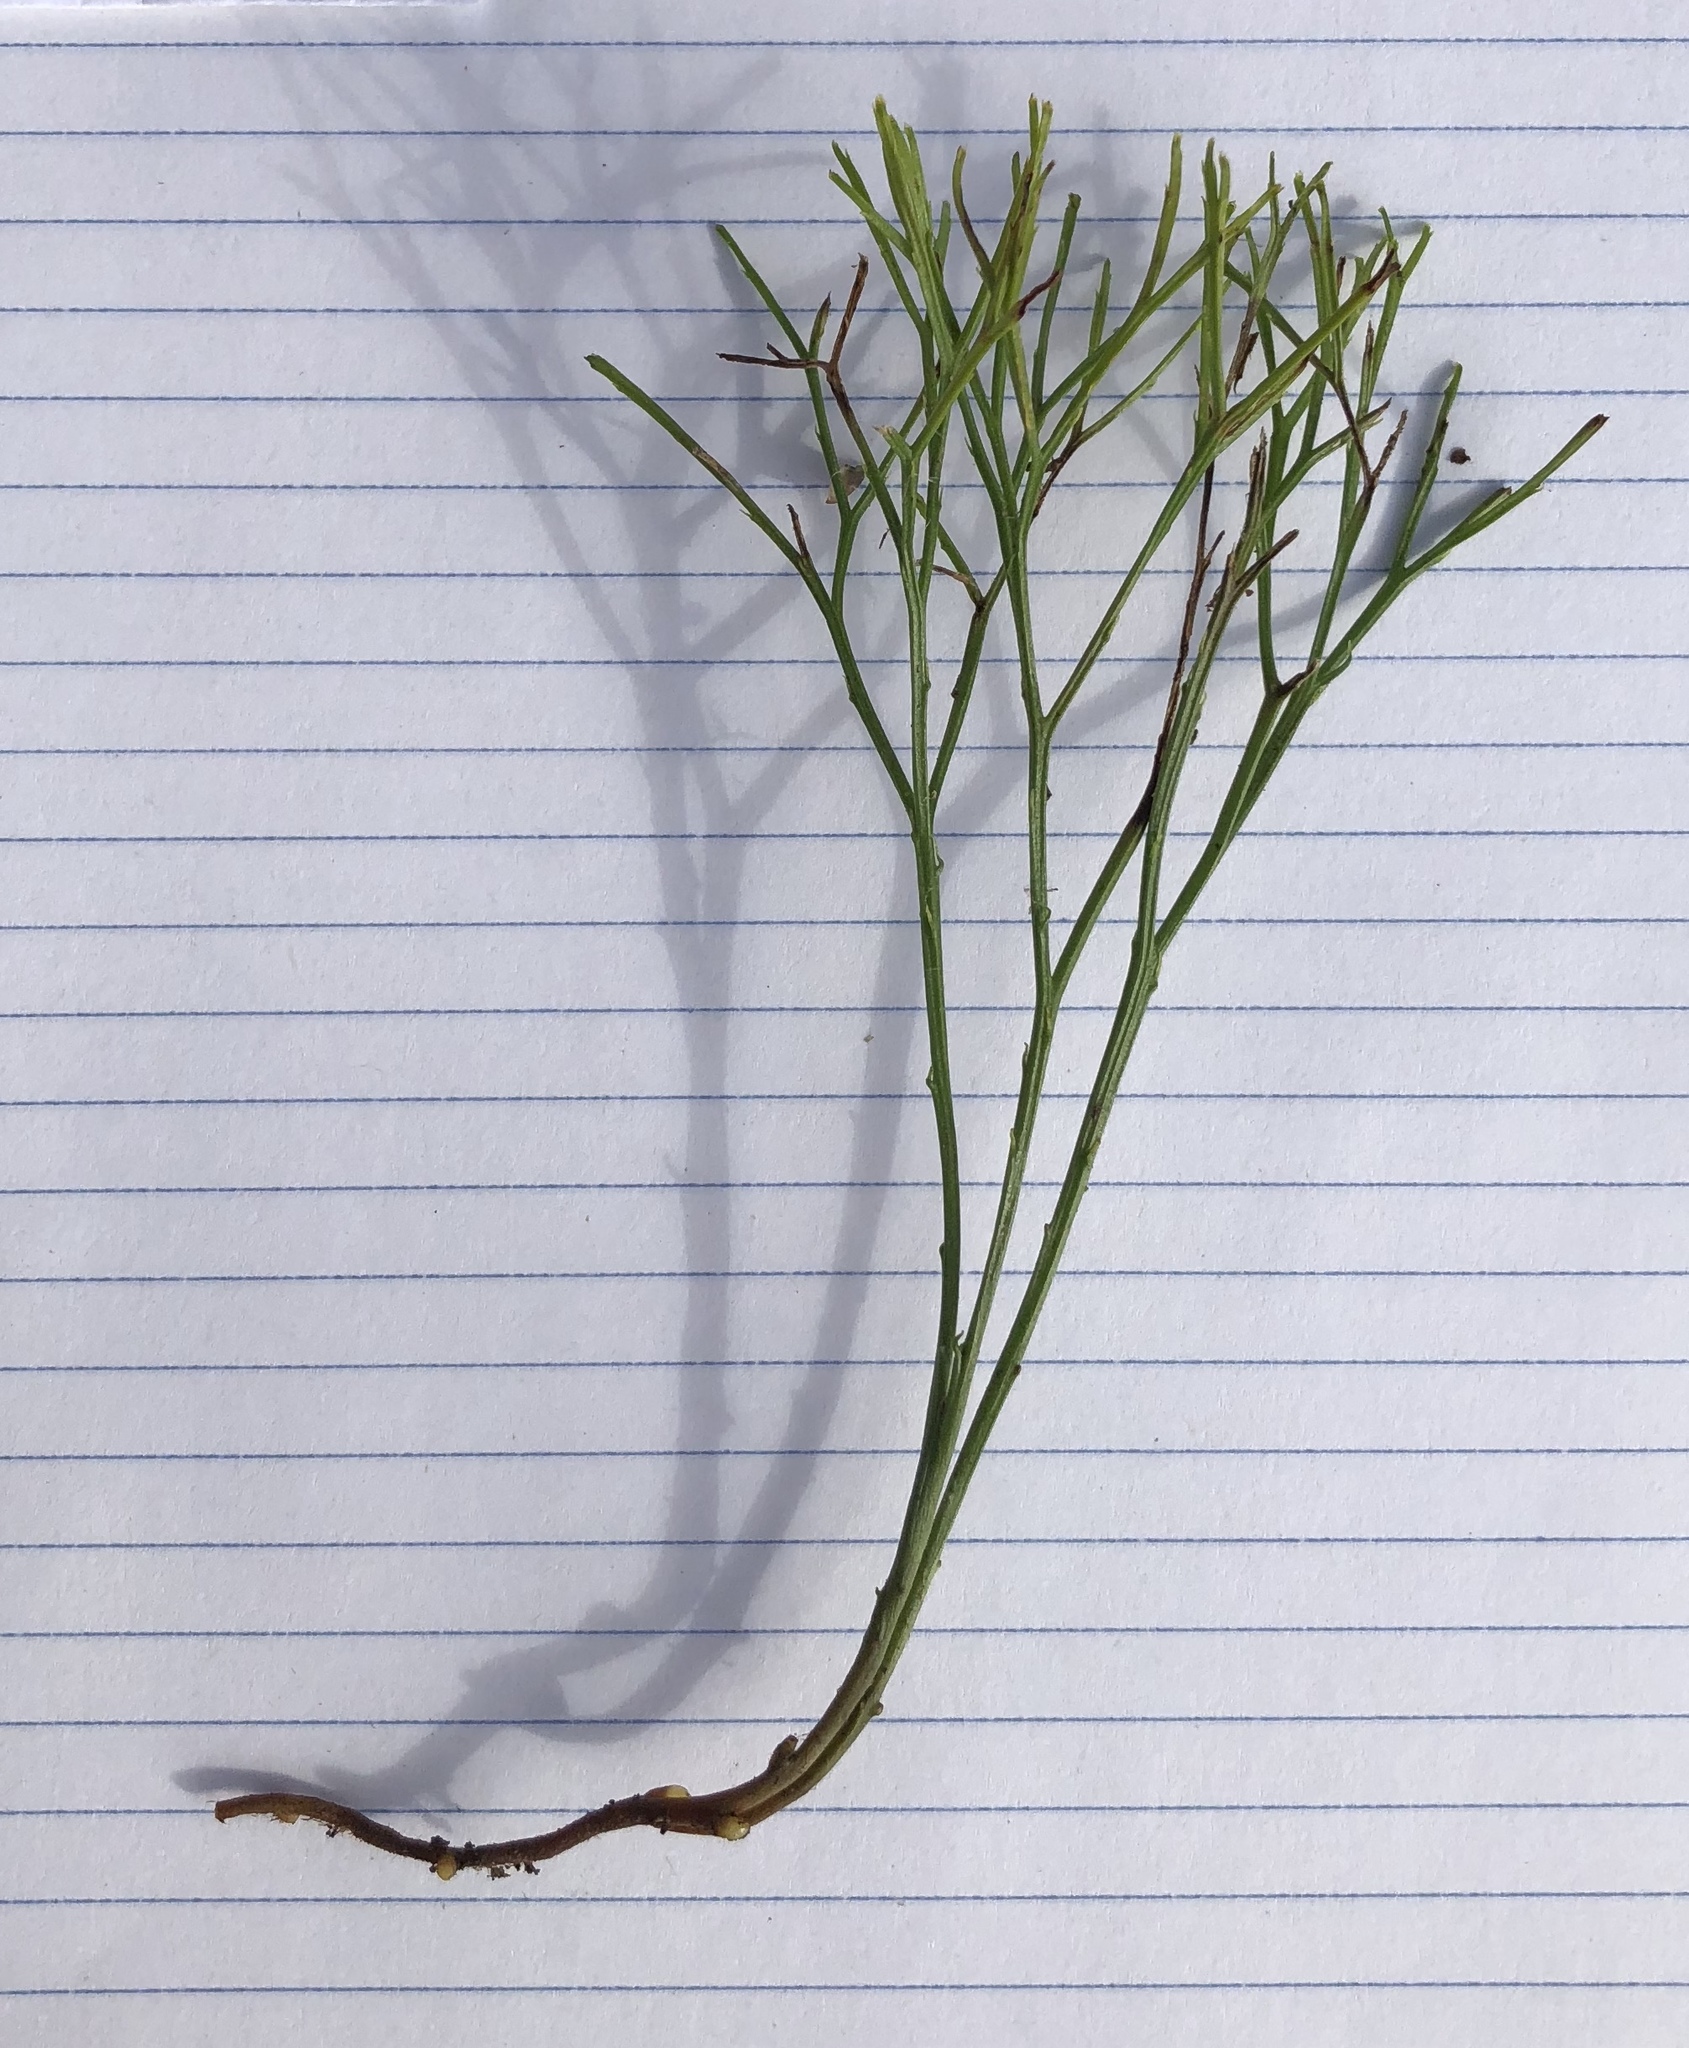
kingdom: Plantae
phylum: Tracheophyta
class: Polypodiopsida
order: Psilotales
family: Psilotaceae
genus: Psilotum
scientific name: Psilotum nudum
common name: Skeleton fork fern
